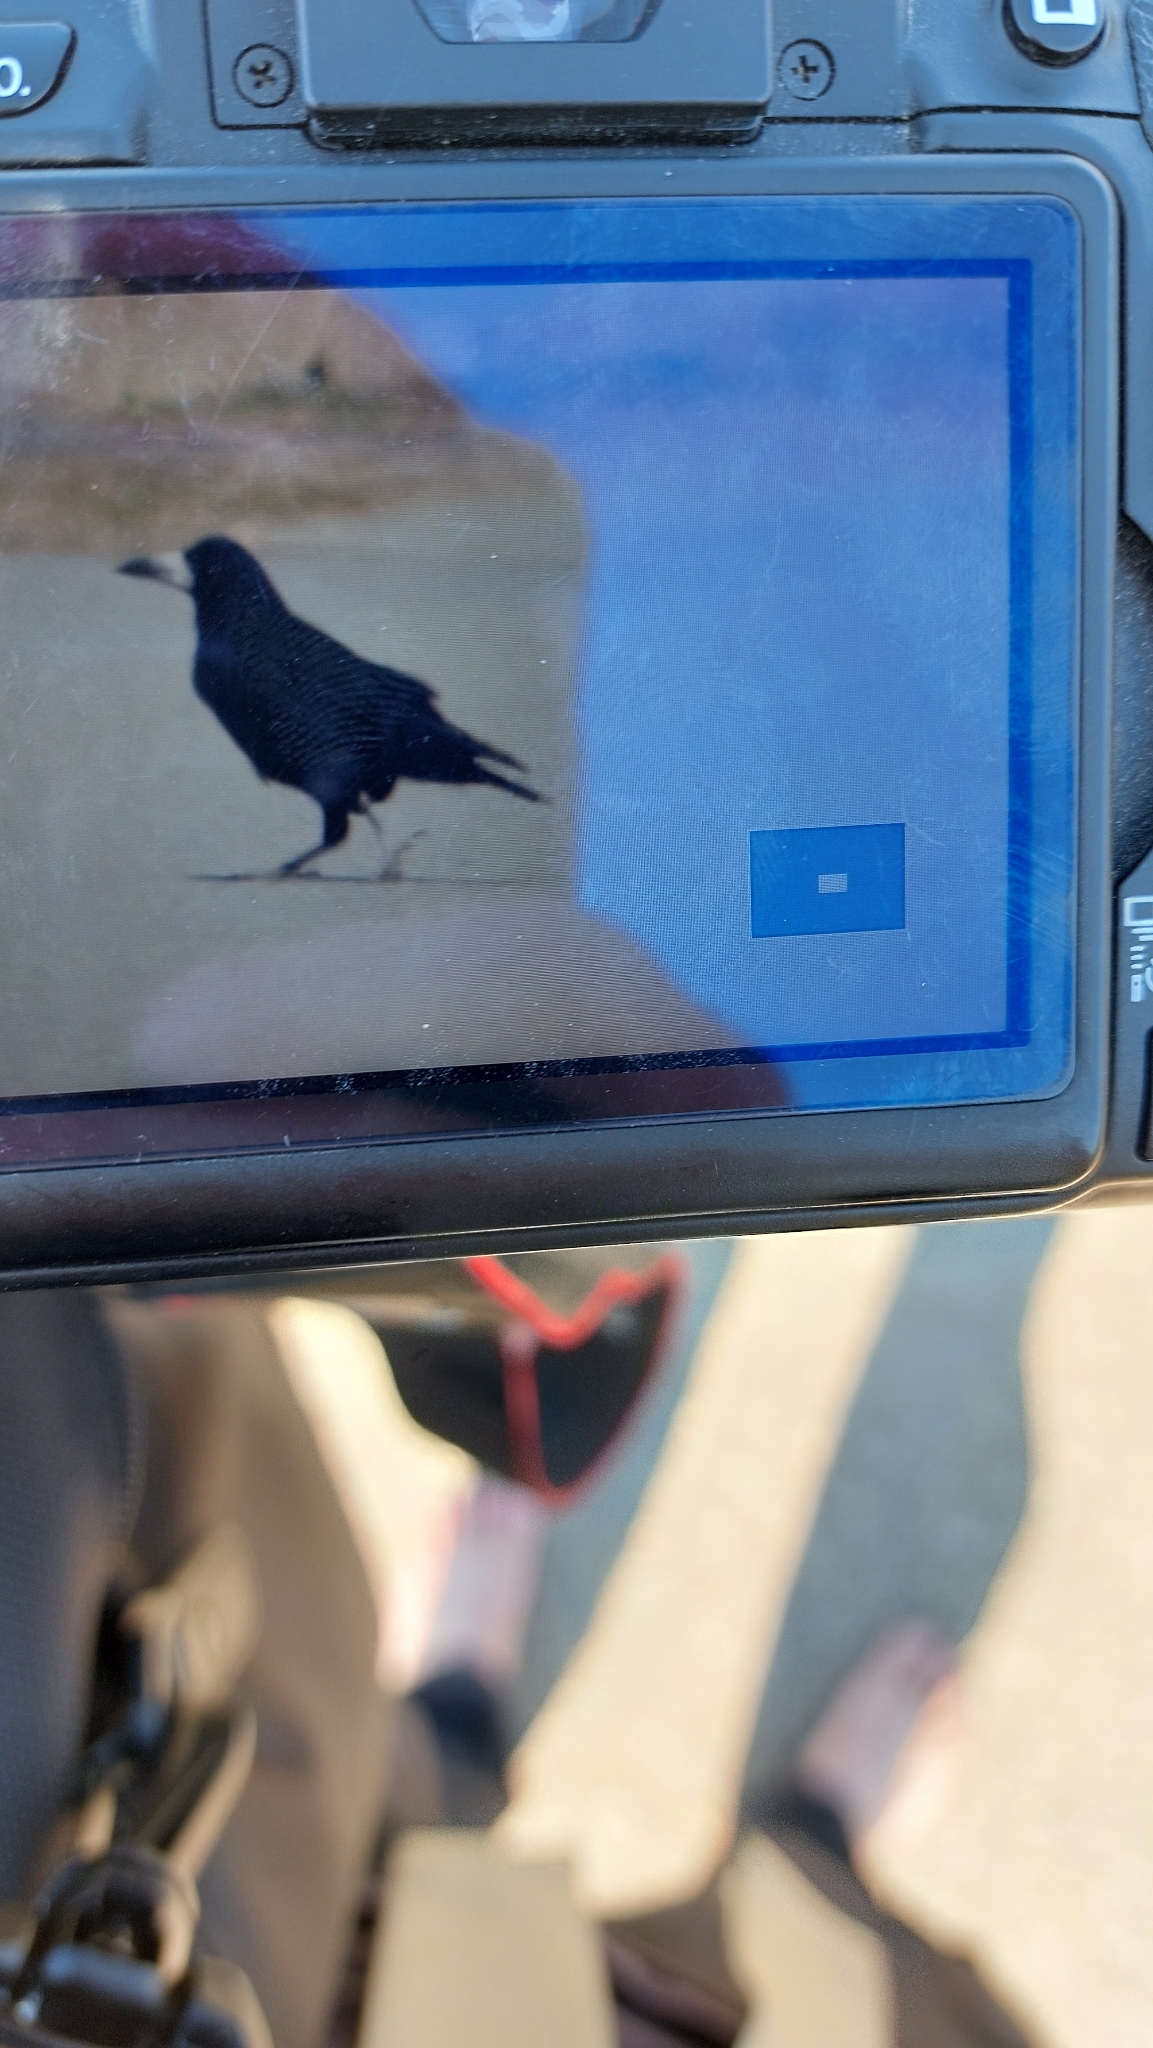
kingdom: Animalia
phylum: Chordata
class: Aves
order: Passeriformes
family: Corvidae
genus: Corvus
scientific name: Corvus frugilegus
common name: Rook
